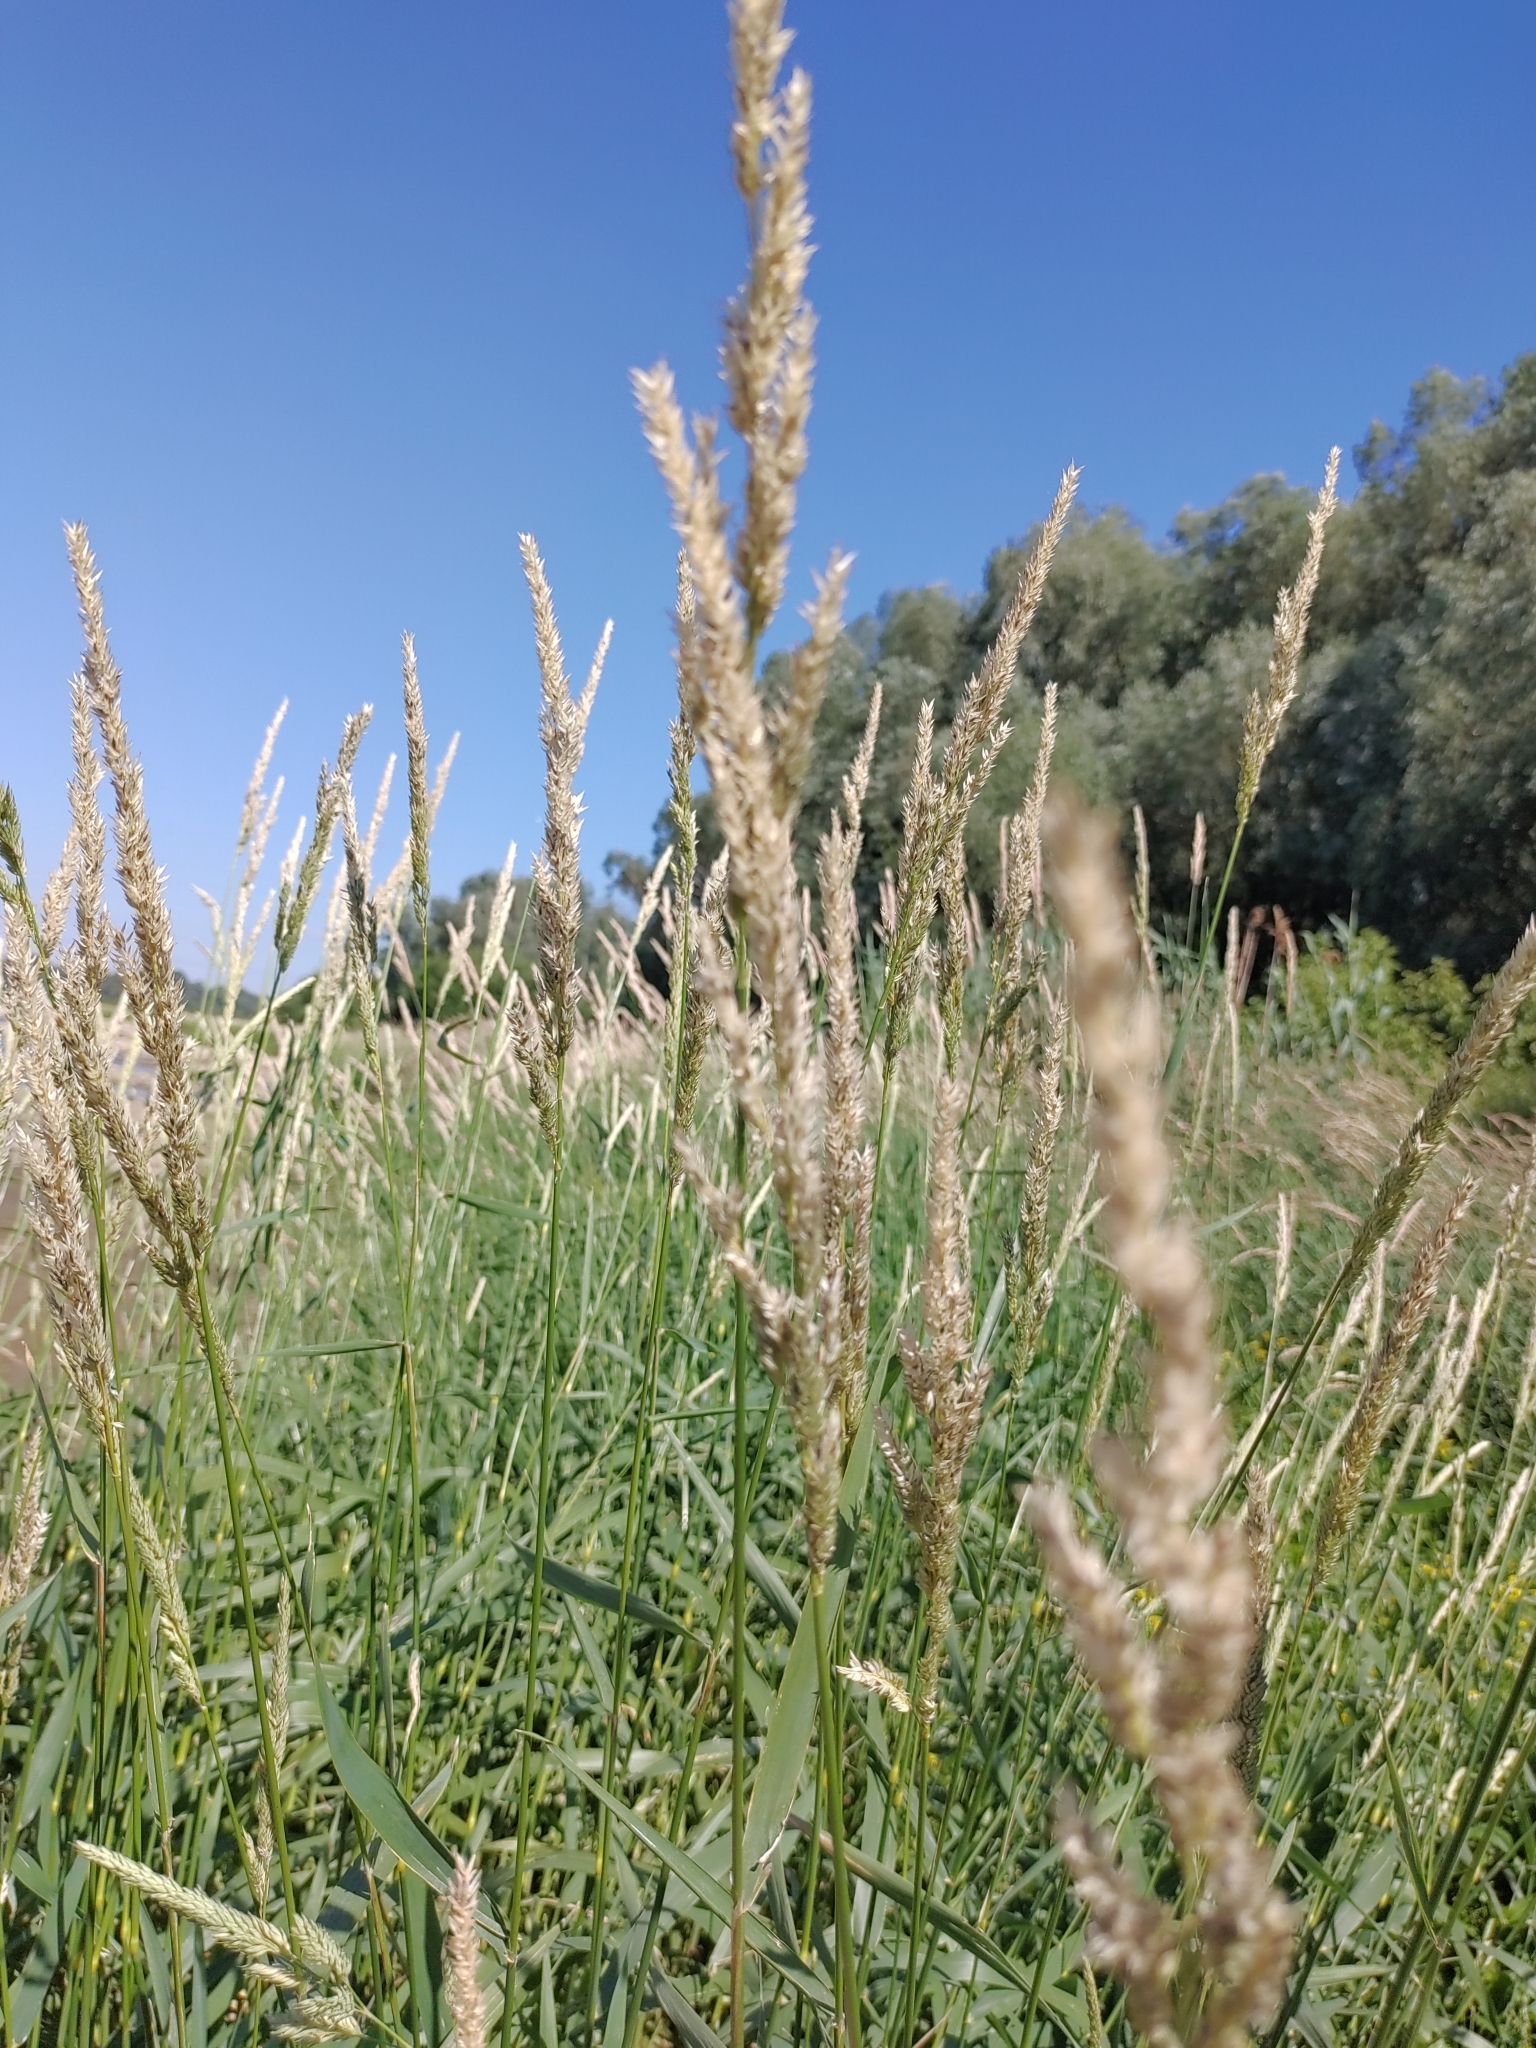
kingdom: Plantae
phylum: Tracheophyta
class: Liliopsida
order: Poales
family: Poaceae
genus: Phalaris
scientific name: Phalaris arundinacea
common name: Reed canary-grass
